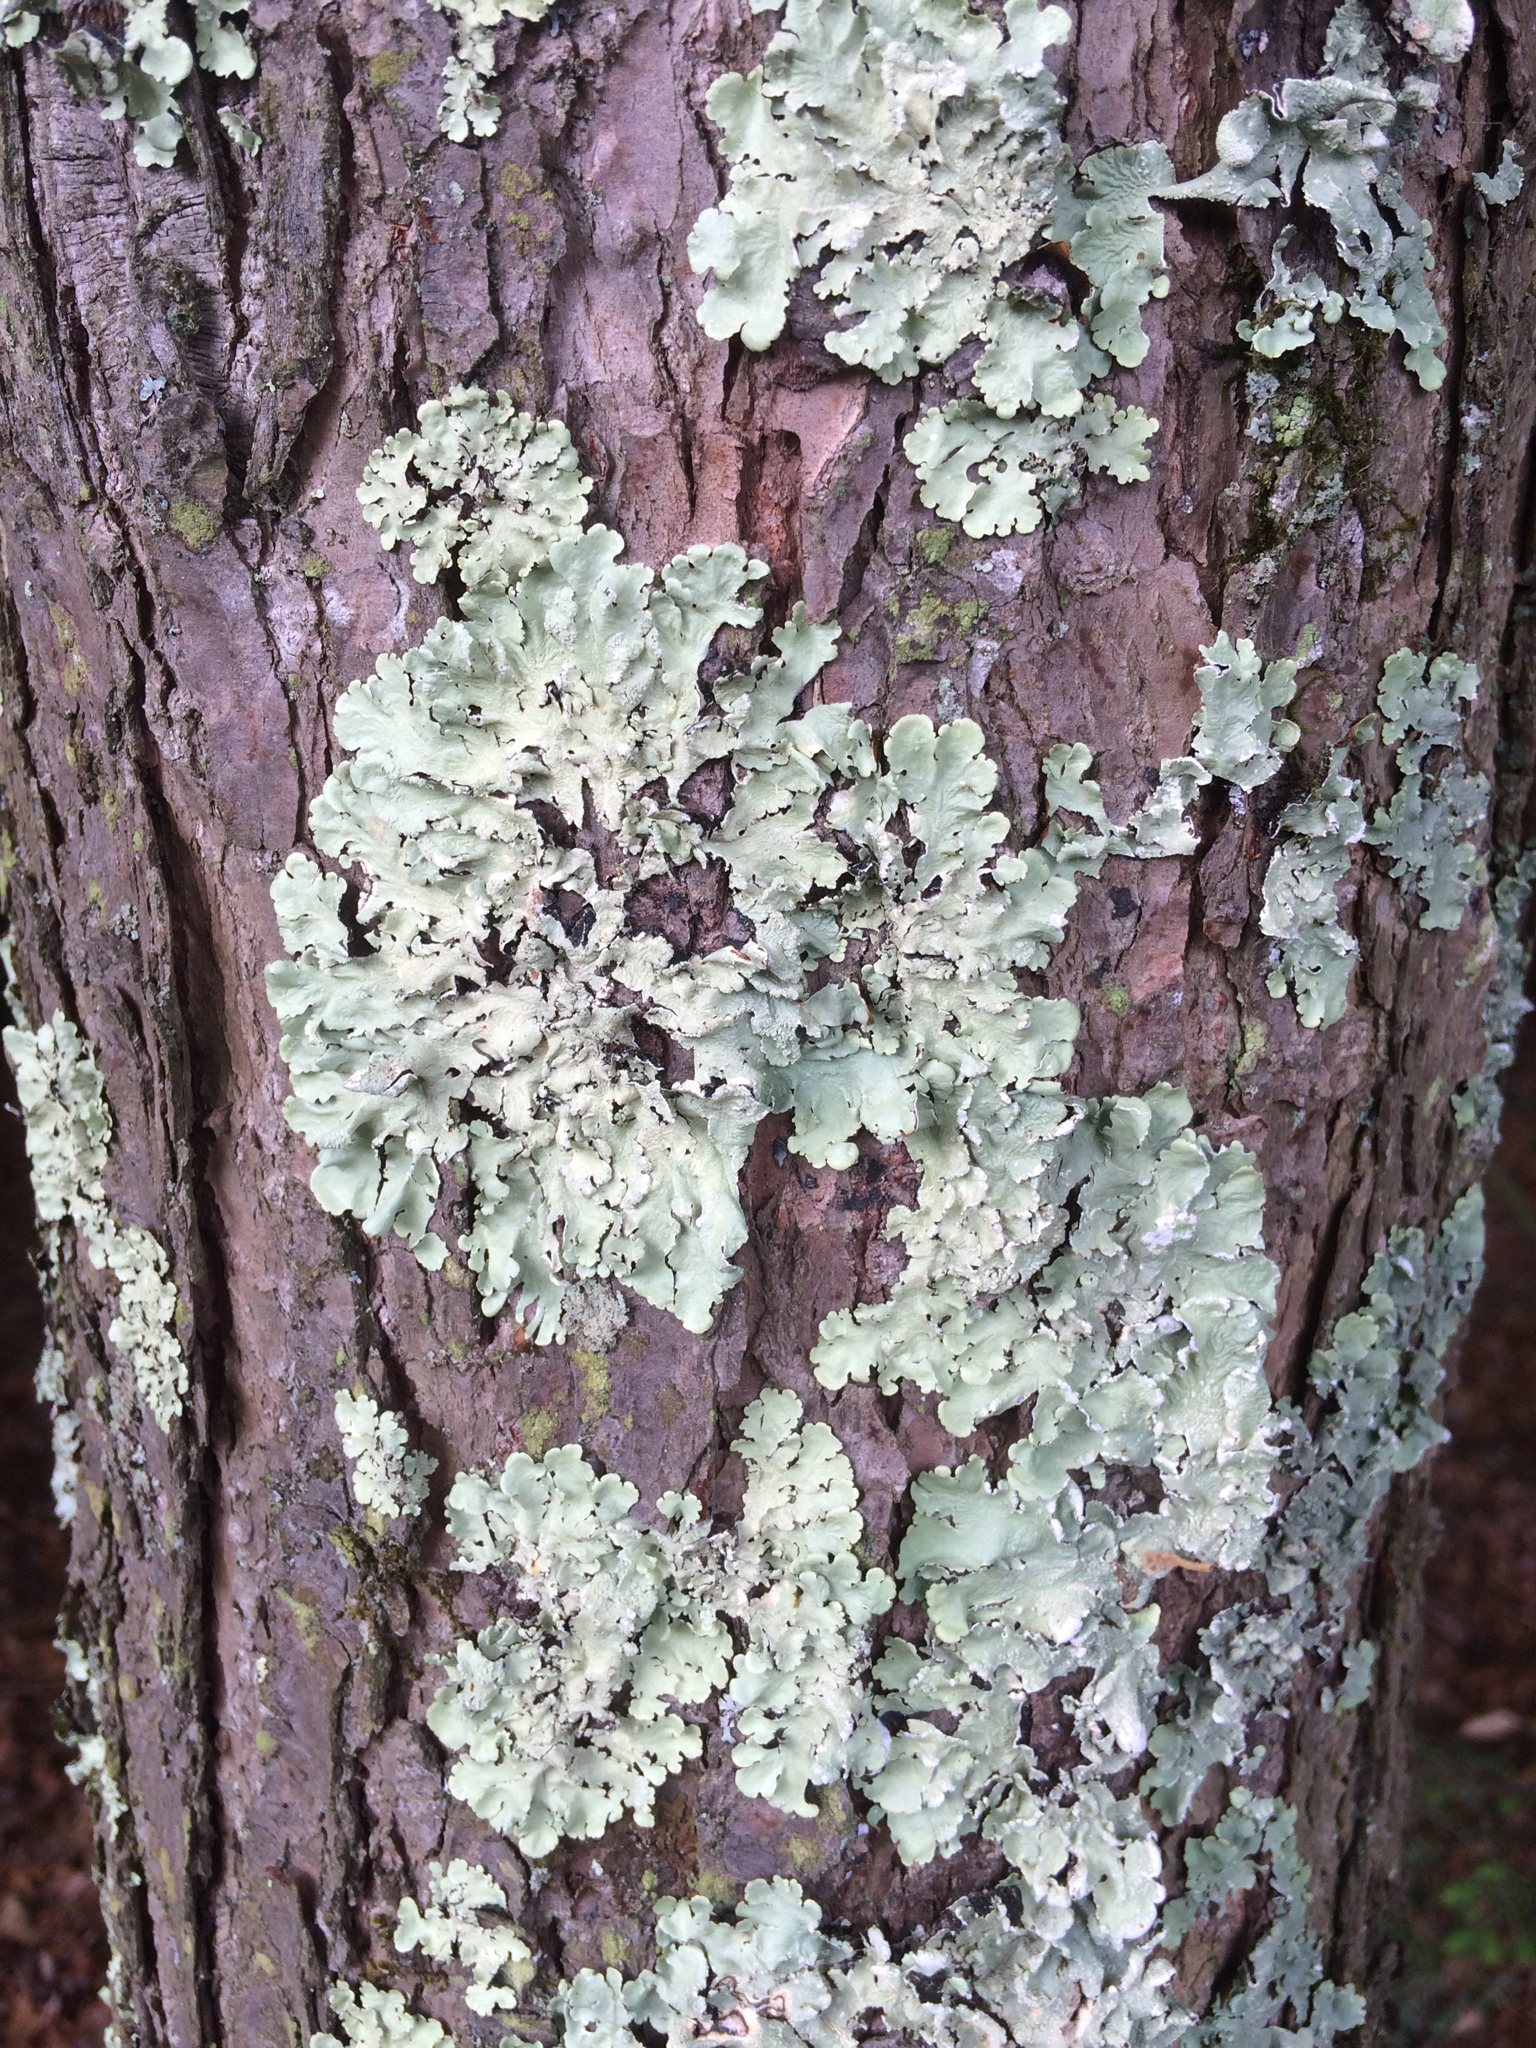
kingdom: Fungi
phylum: Ascomycota
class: Lecanoromycetes
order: Lecanorales
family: Parmeliaceae
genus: Flavoparmelia
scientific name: Flavoparmelia caperata
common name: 40-mile per hour lichen
